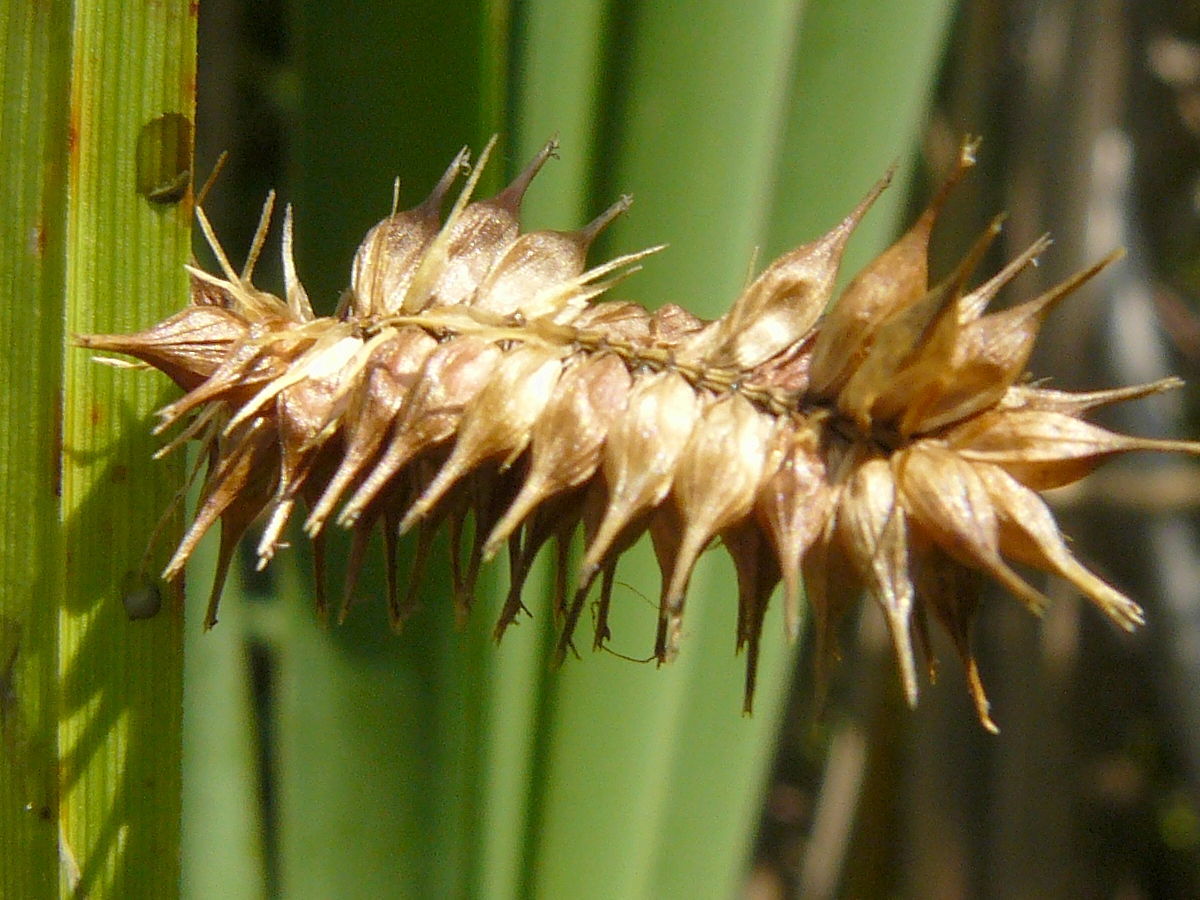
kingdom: Plantae
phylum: Tracheophyta
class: Liliopsida
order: Poales
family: Cyperaceae
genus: Carex
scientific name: Carex pseudocyperus
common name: Cyperus sedge
